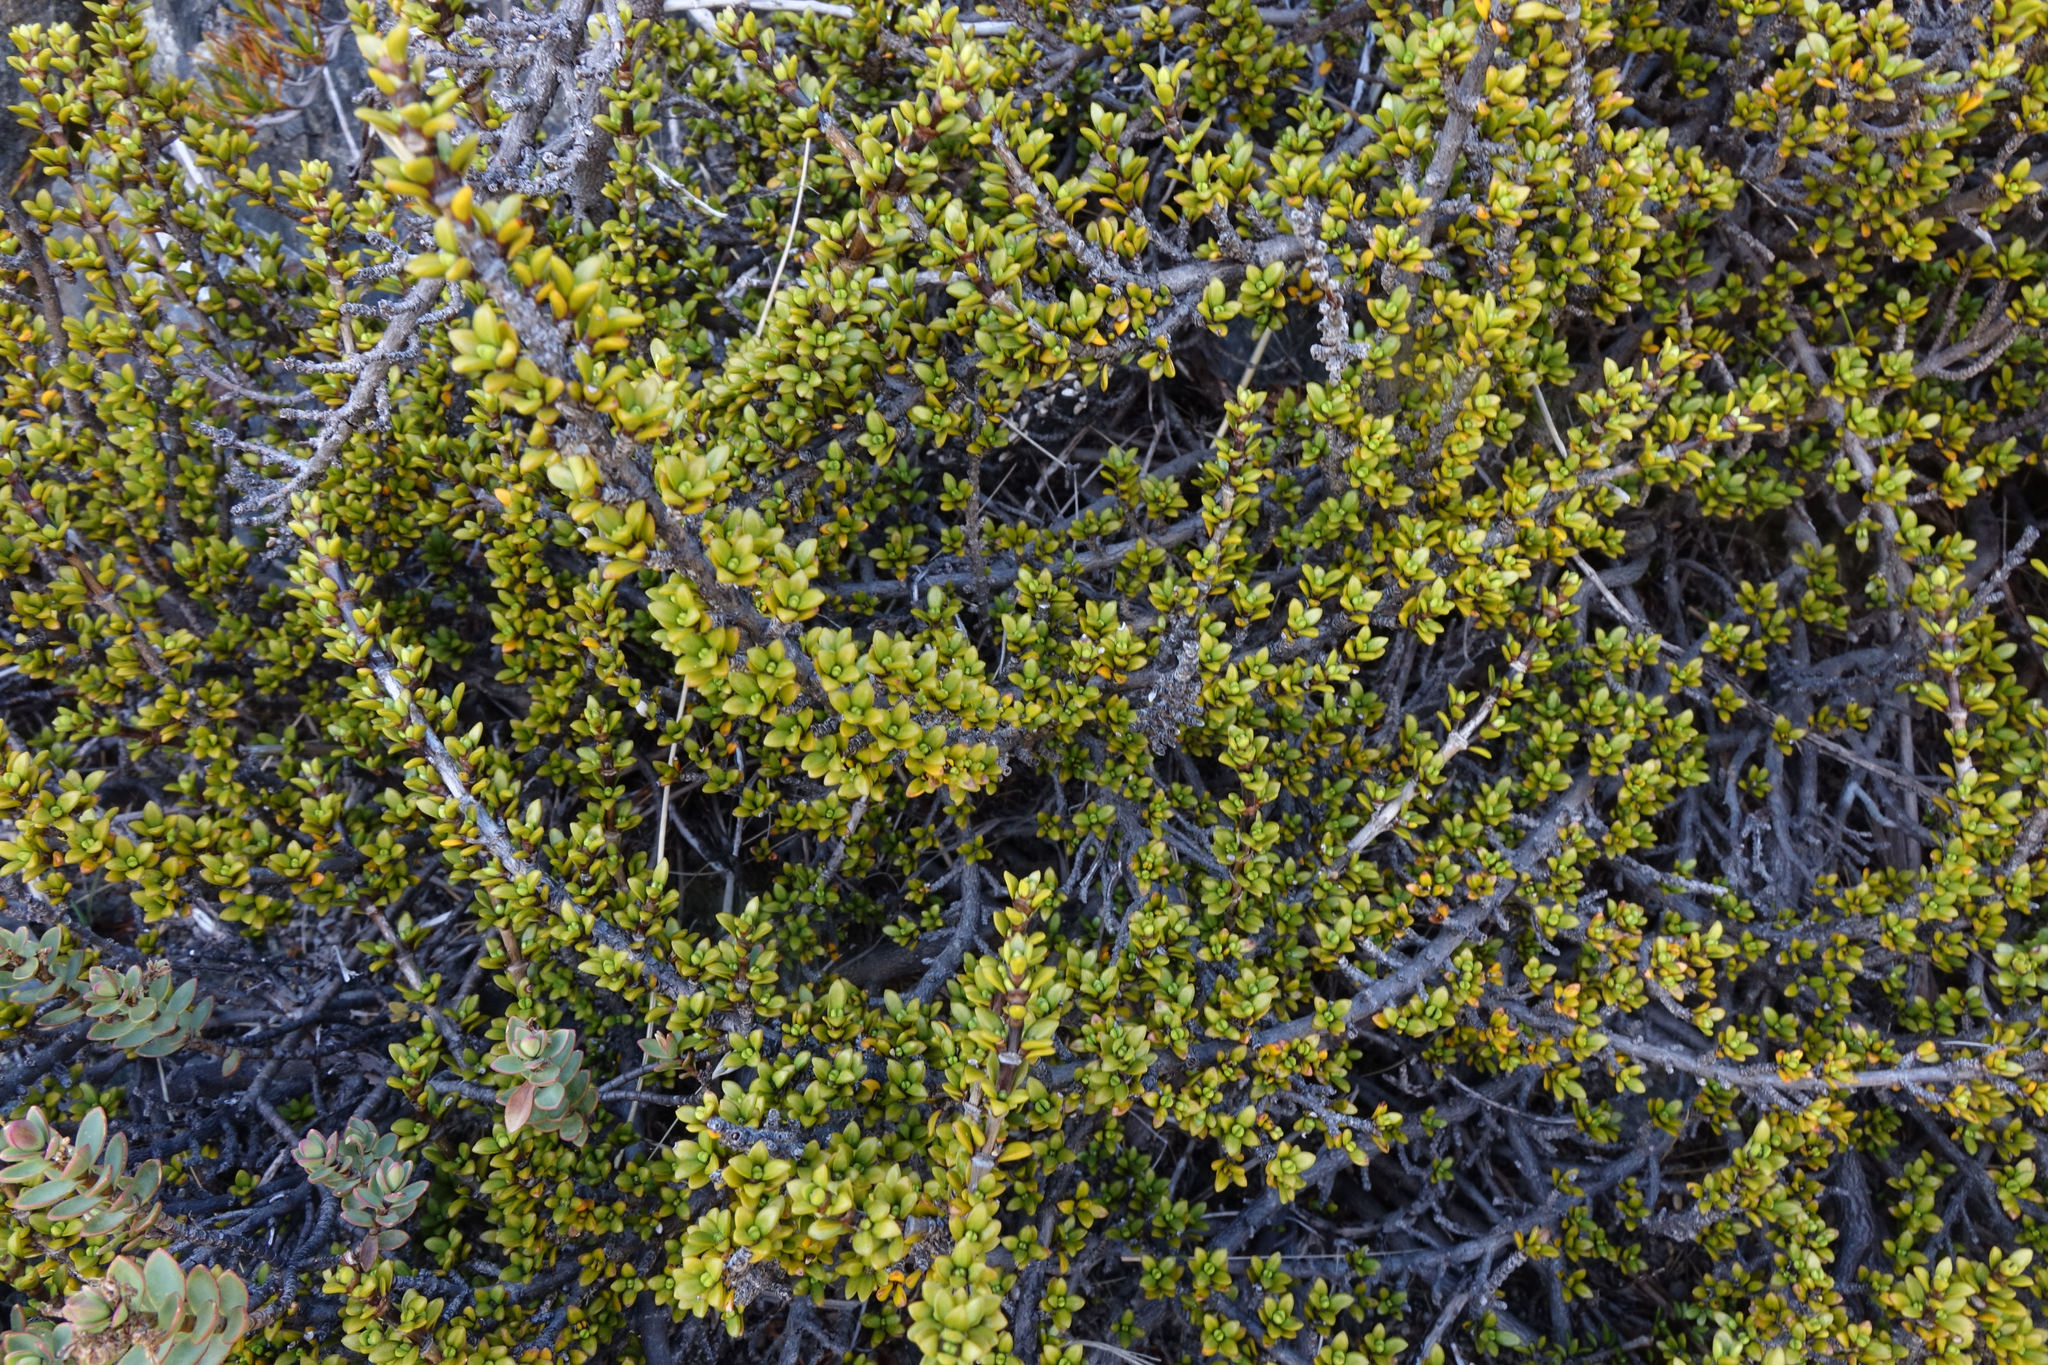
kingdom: Plantae
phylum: Tracheophyta
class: Magnoliopsida
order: Gentianales
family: Rubiaceae
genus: Coprosma
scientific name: Coprosma fowerakeri
